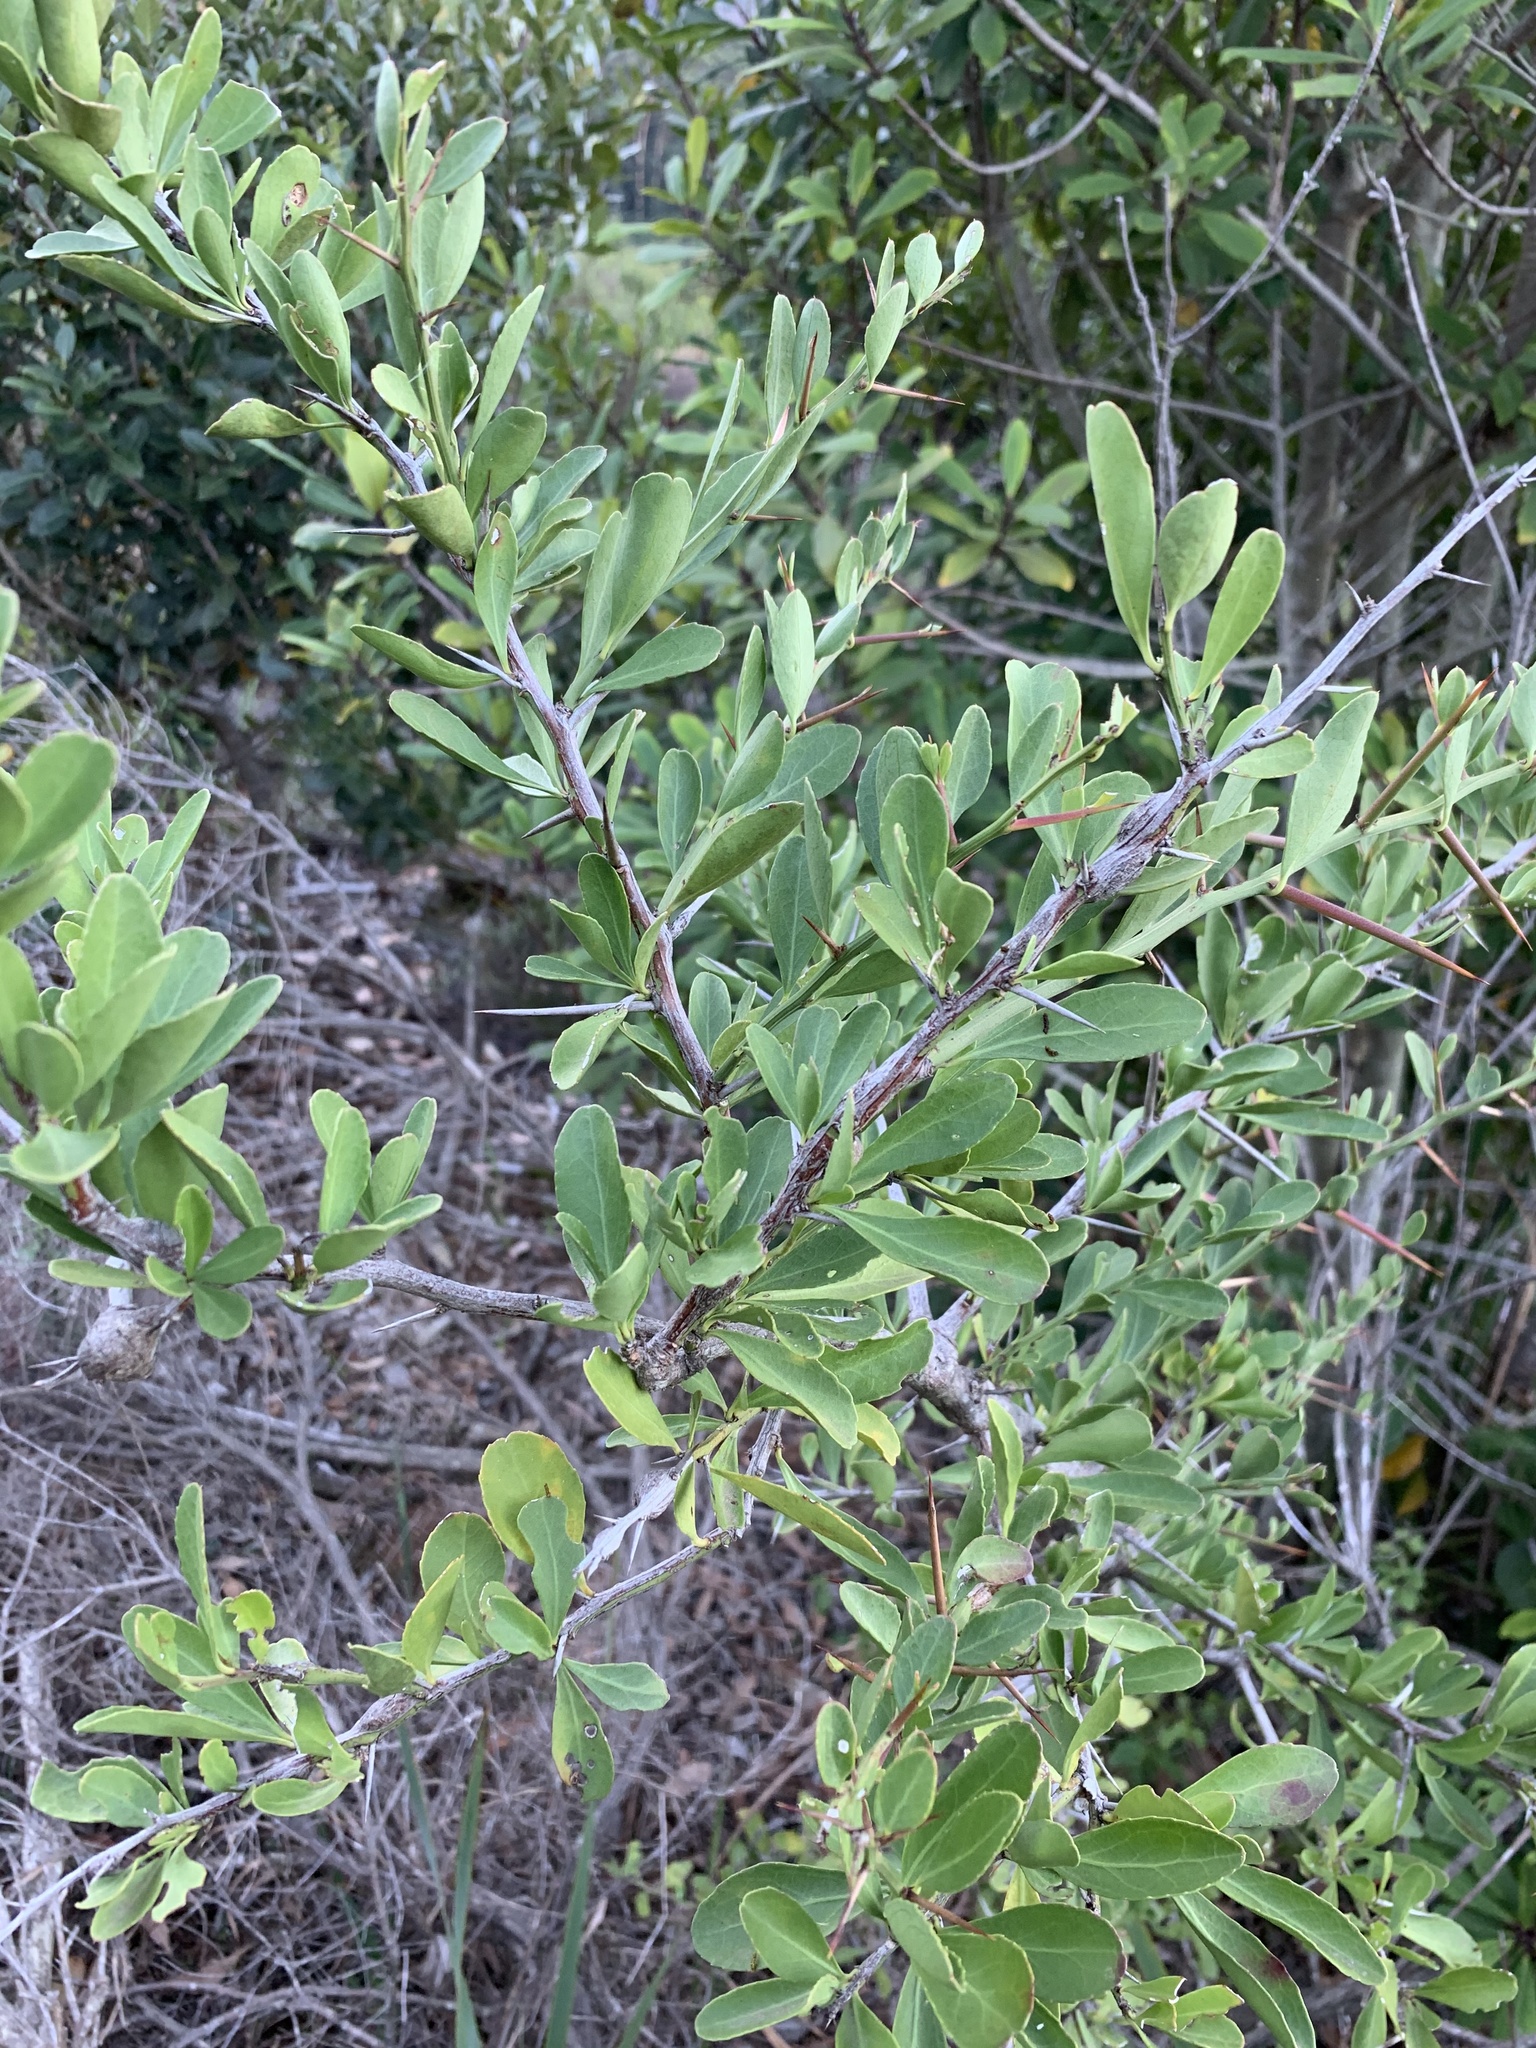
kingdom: Plantae
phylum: Tracheophyta
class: Magnoliopsida
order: Celastrales
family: Celastraceae
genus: Gymnosporia
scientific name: Gymnosporia buxifolia
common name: Common spike-thorn
